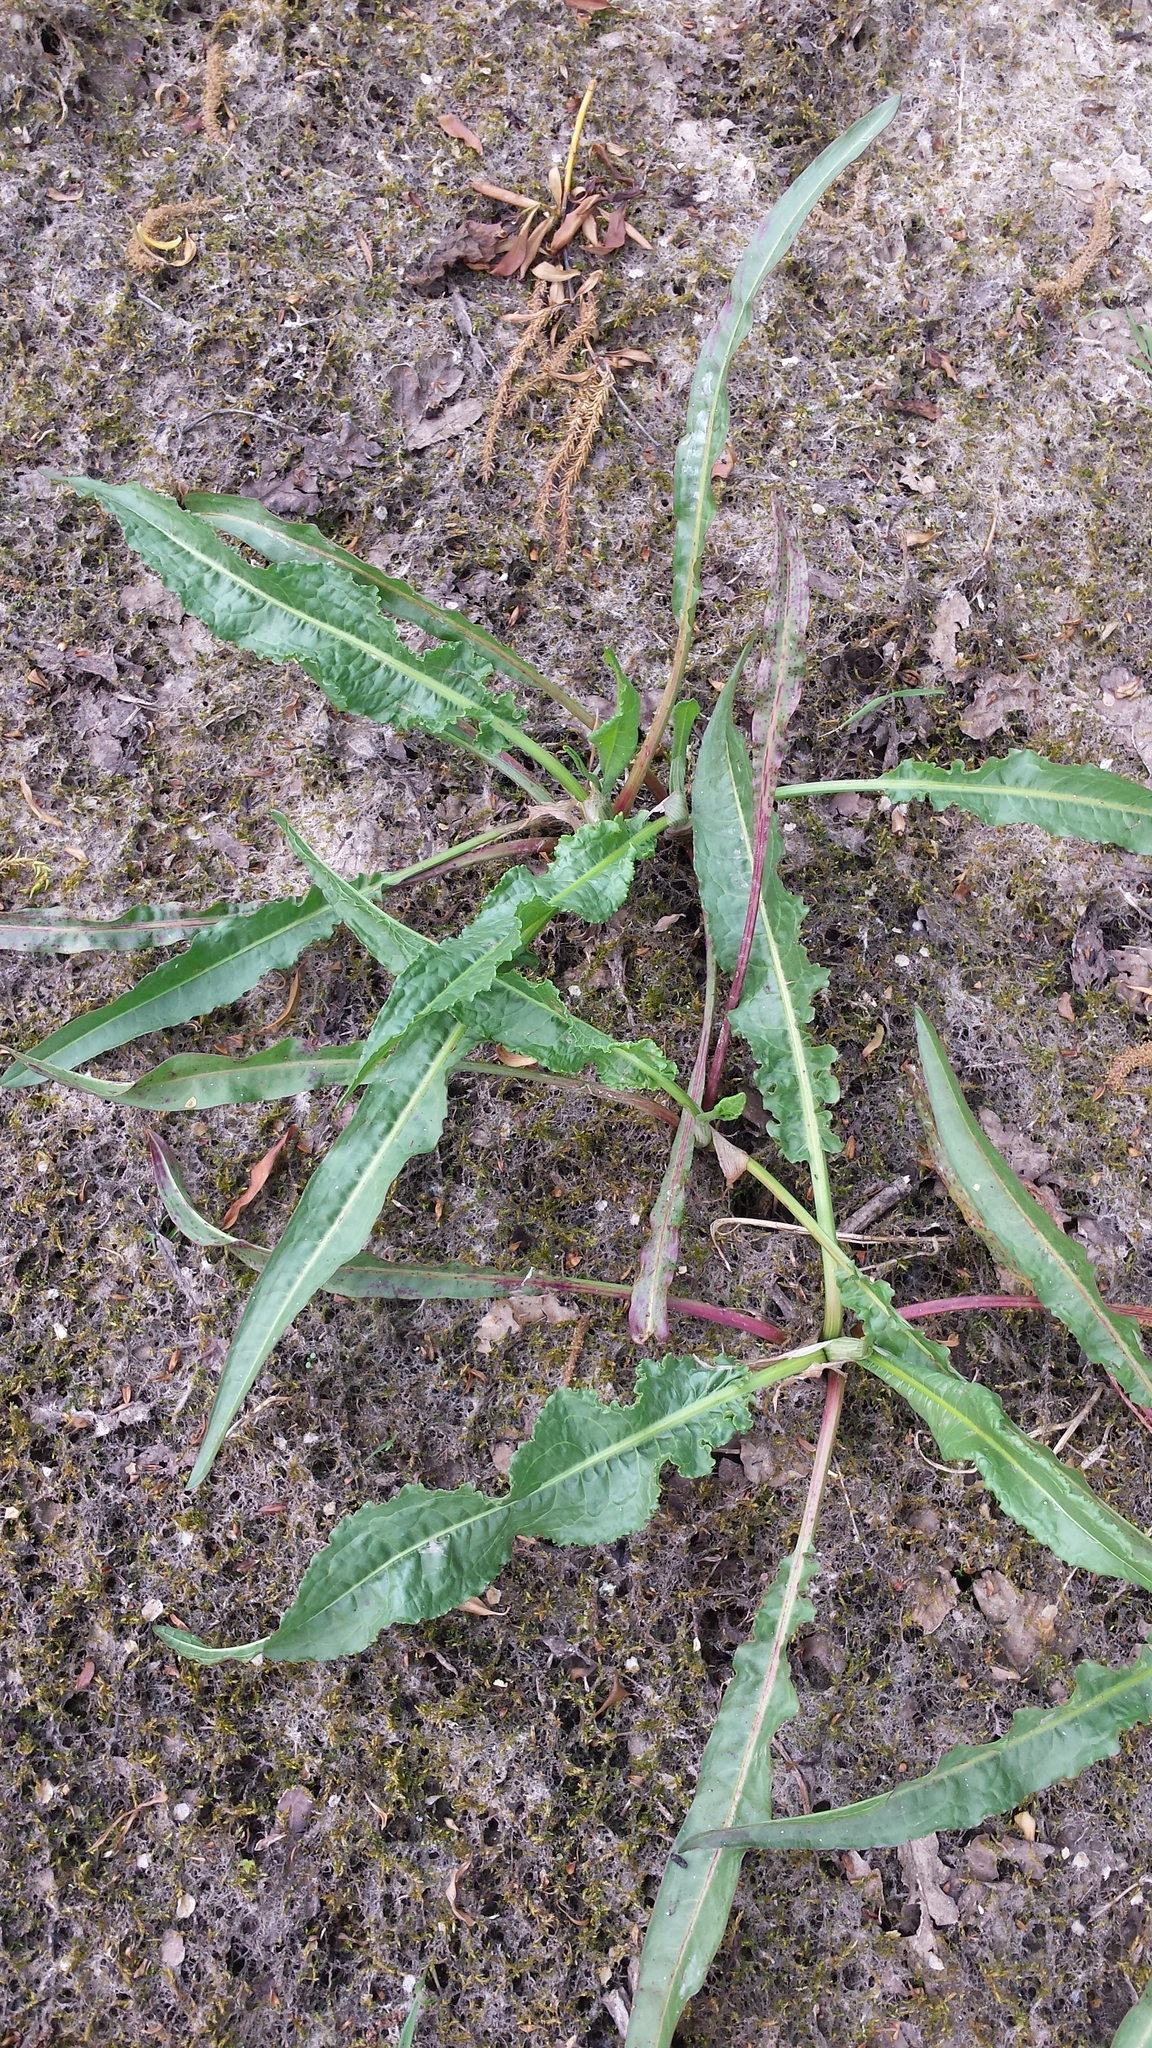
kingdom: Plantae
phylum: Tracheophyta
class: Magnoliopsida
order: Brassicales
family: Brassicaceae
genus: Armoracia
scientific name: Armoracia rusticana
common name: Horseradish
